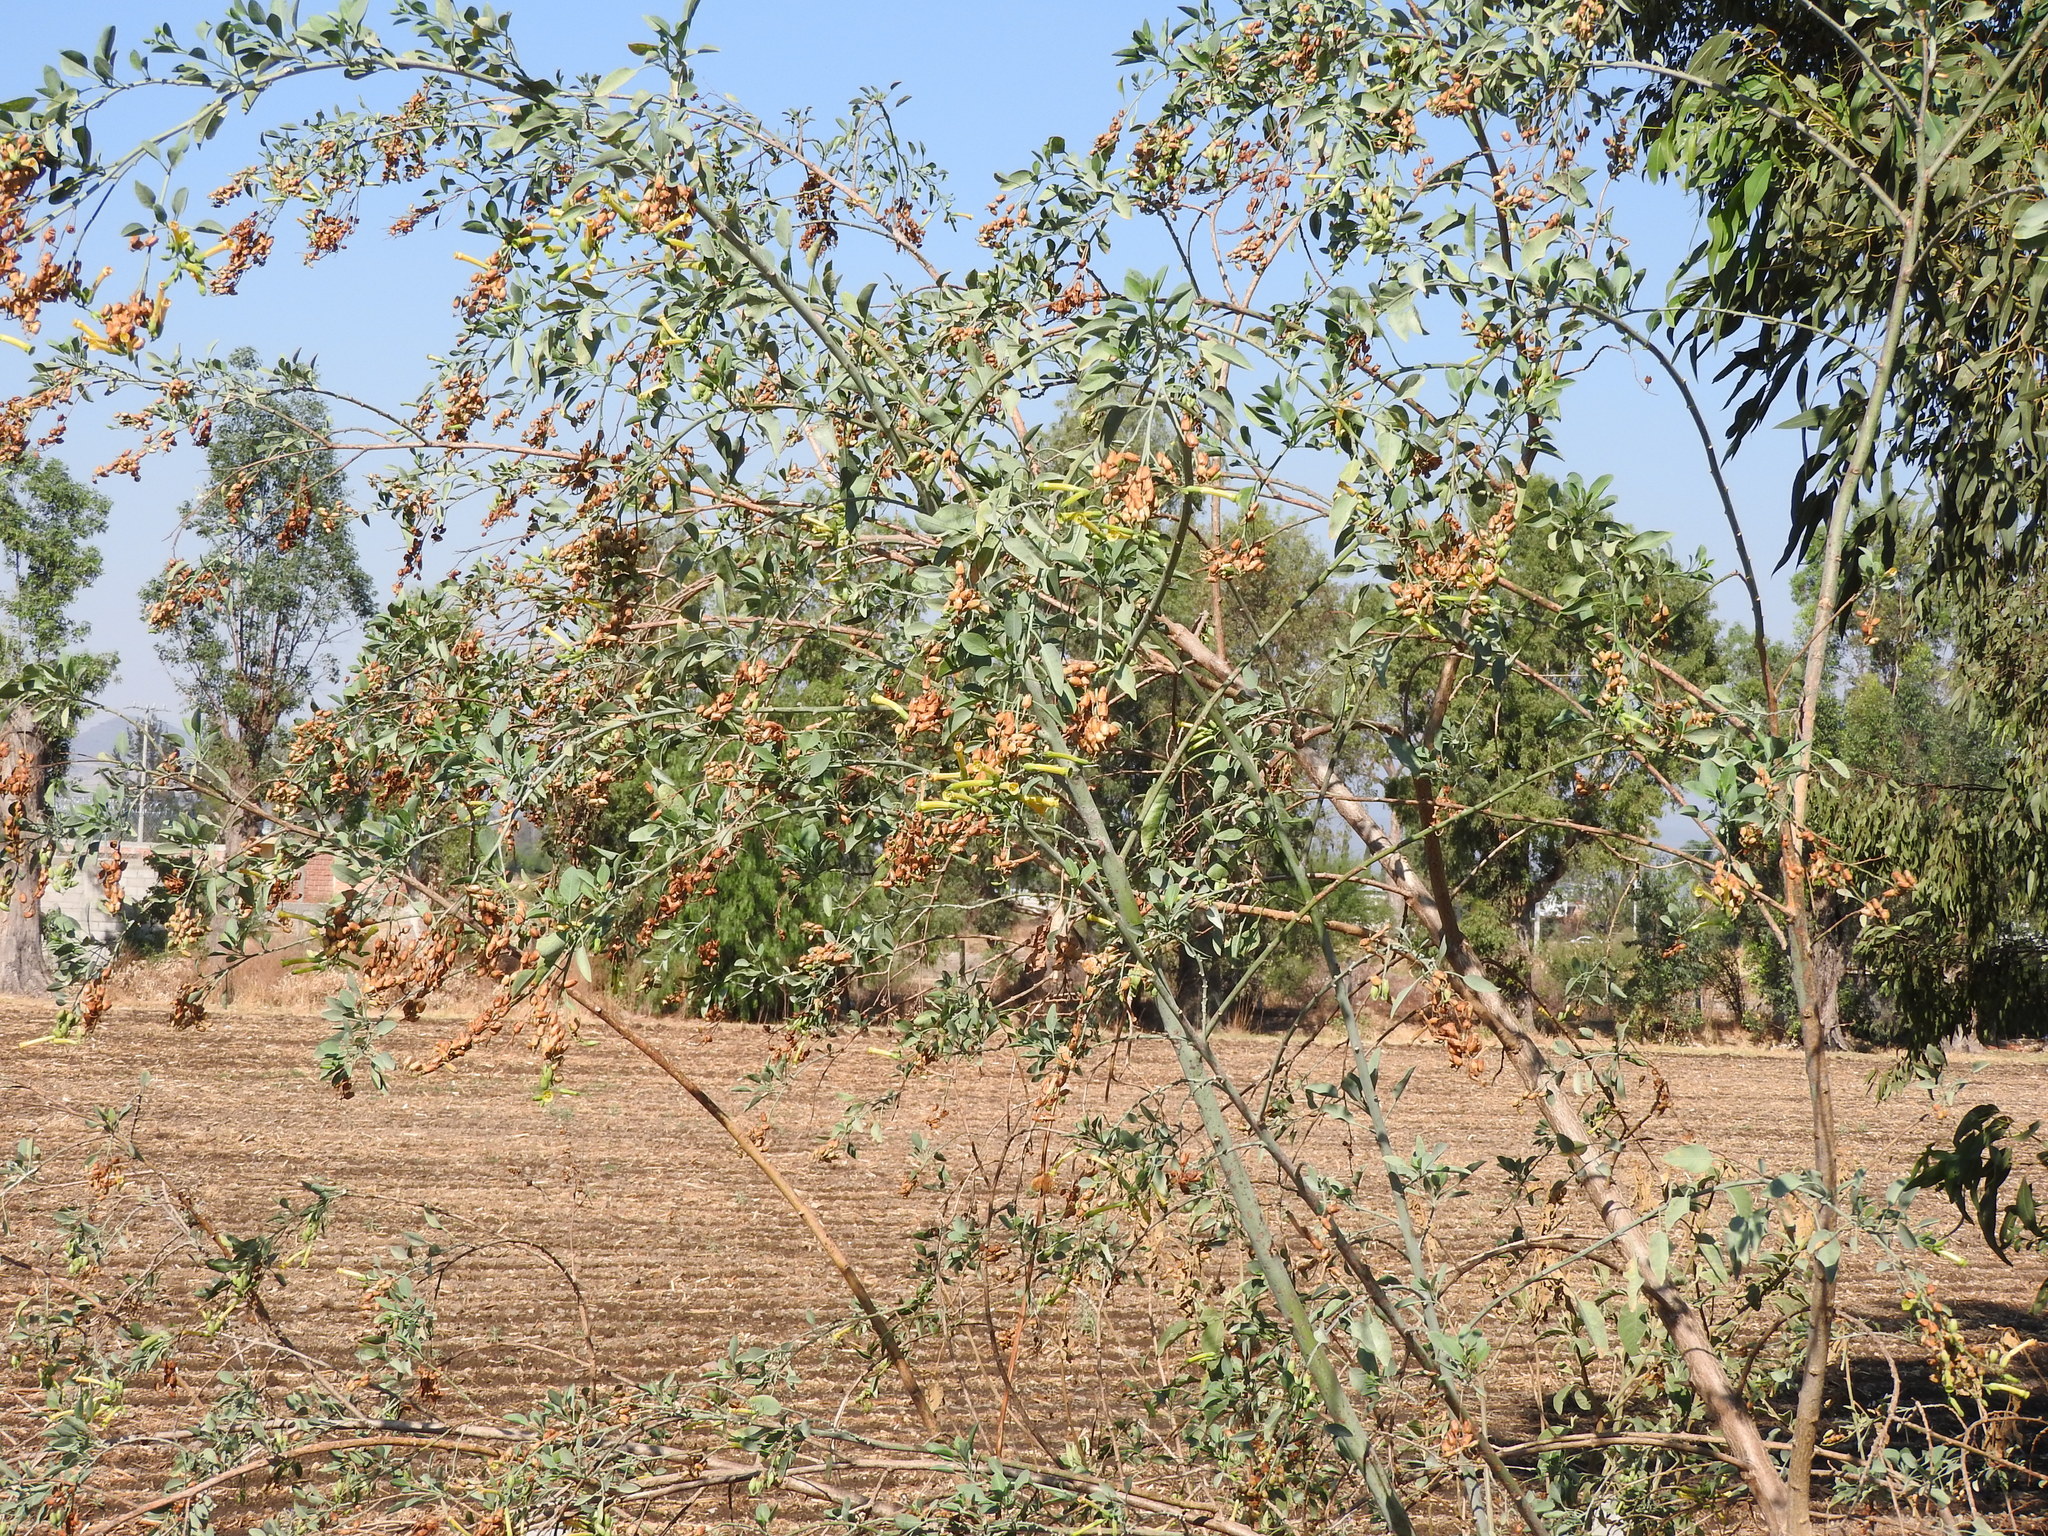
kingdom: Plantae
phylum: Tracheophyta
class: Magnoliopsida
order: Solanales
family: Solanaceae
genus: Nicotiana
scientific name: Nicotiana glauca
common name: Tree tobacco
